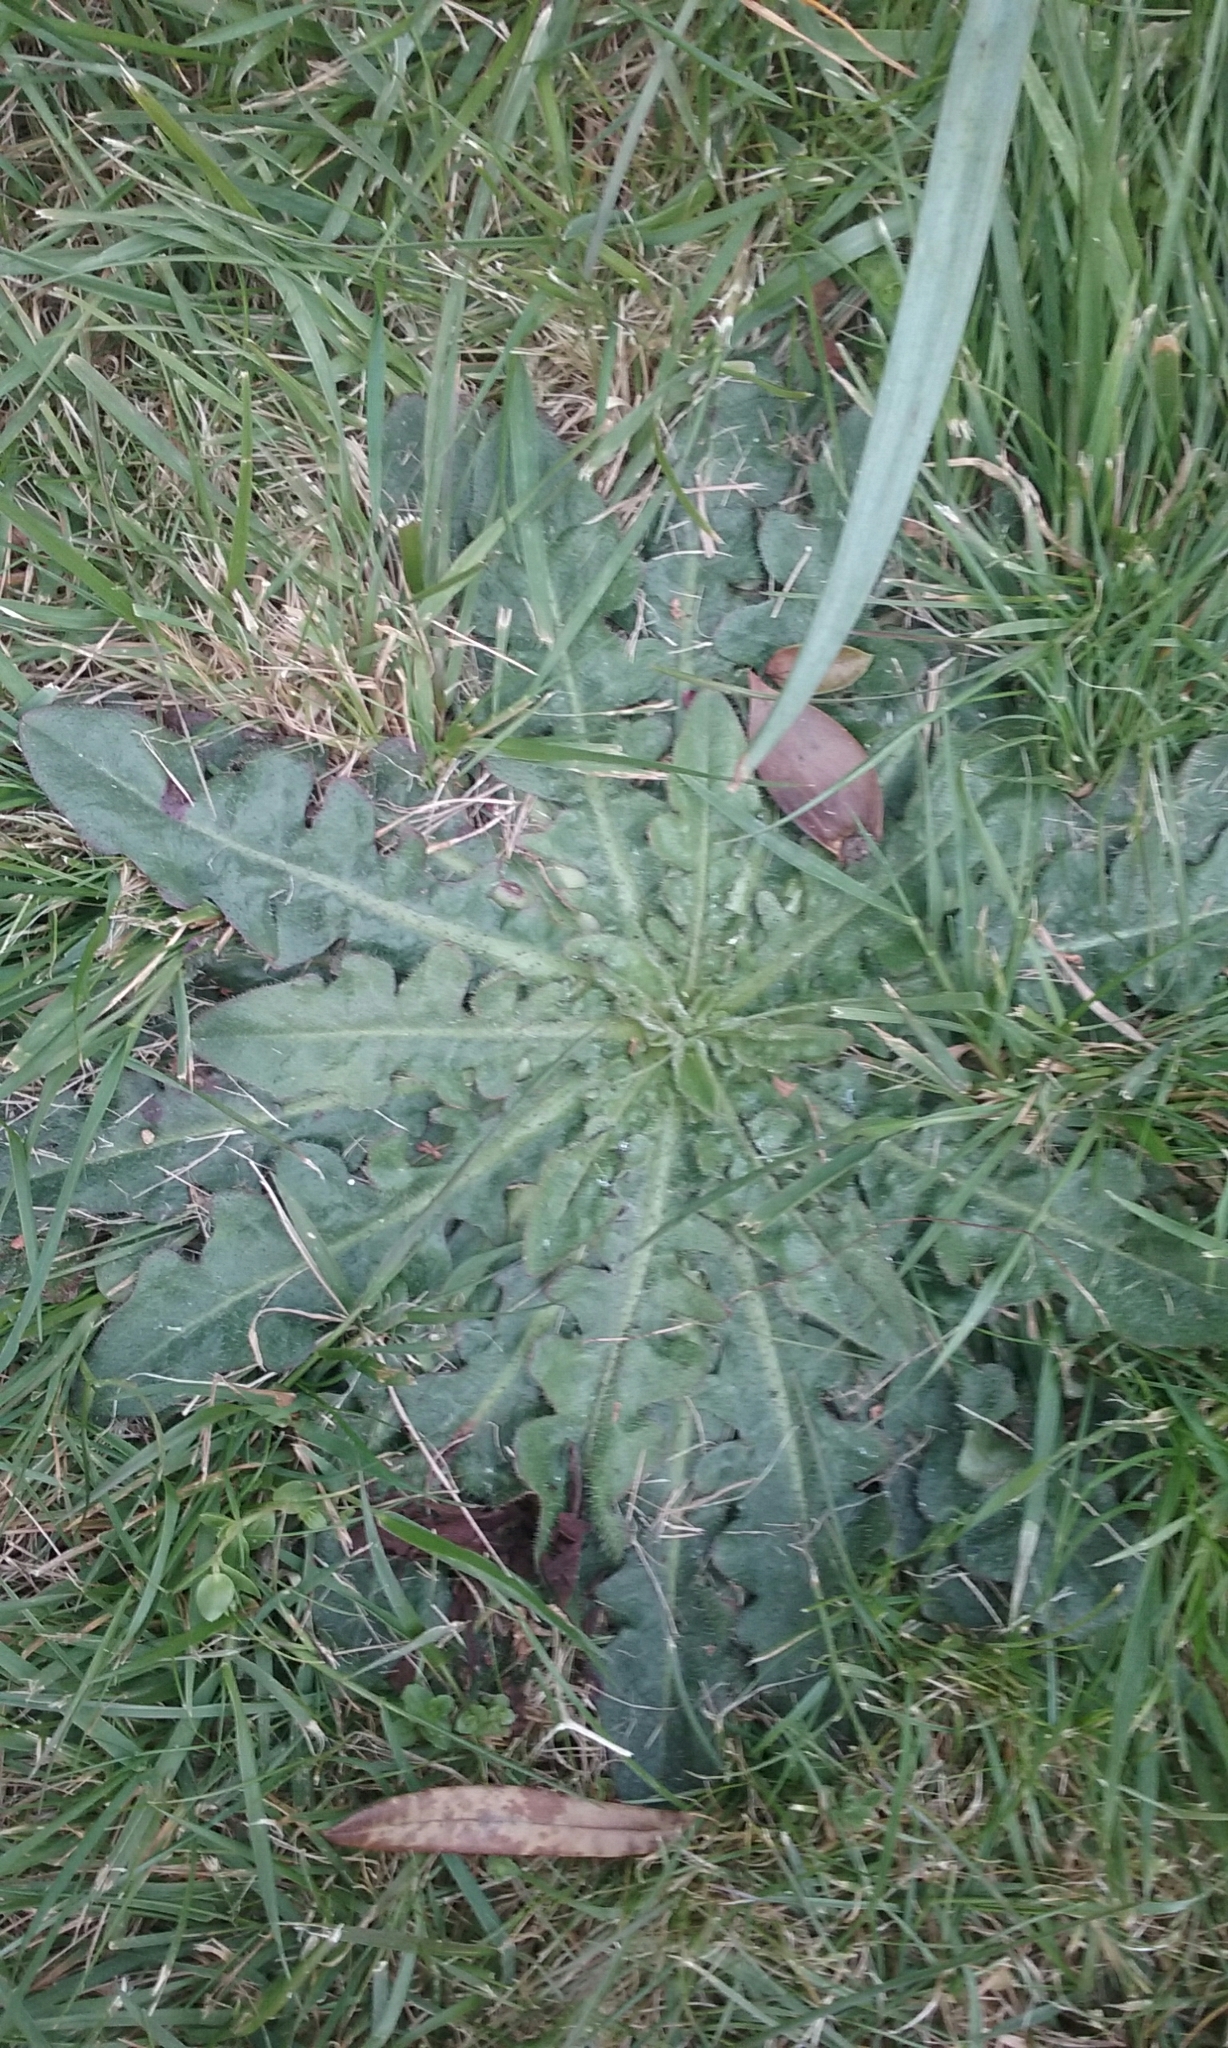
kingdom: Plantae
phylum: Tracheophyta
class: Magnoliopsida
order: Asterales
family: Asteraceae
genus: Hypochaeris
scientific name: Hypochaeris radicata
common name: Flatweed
